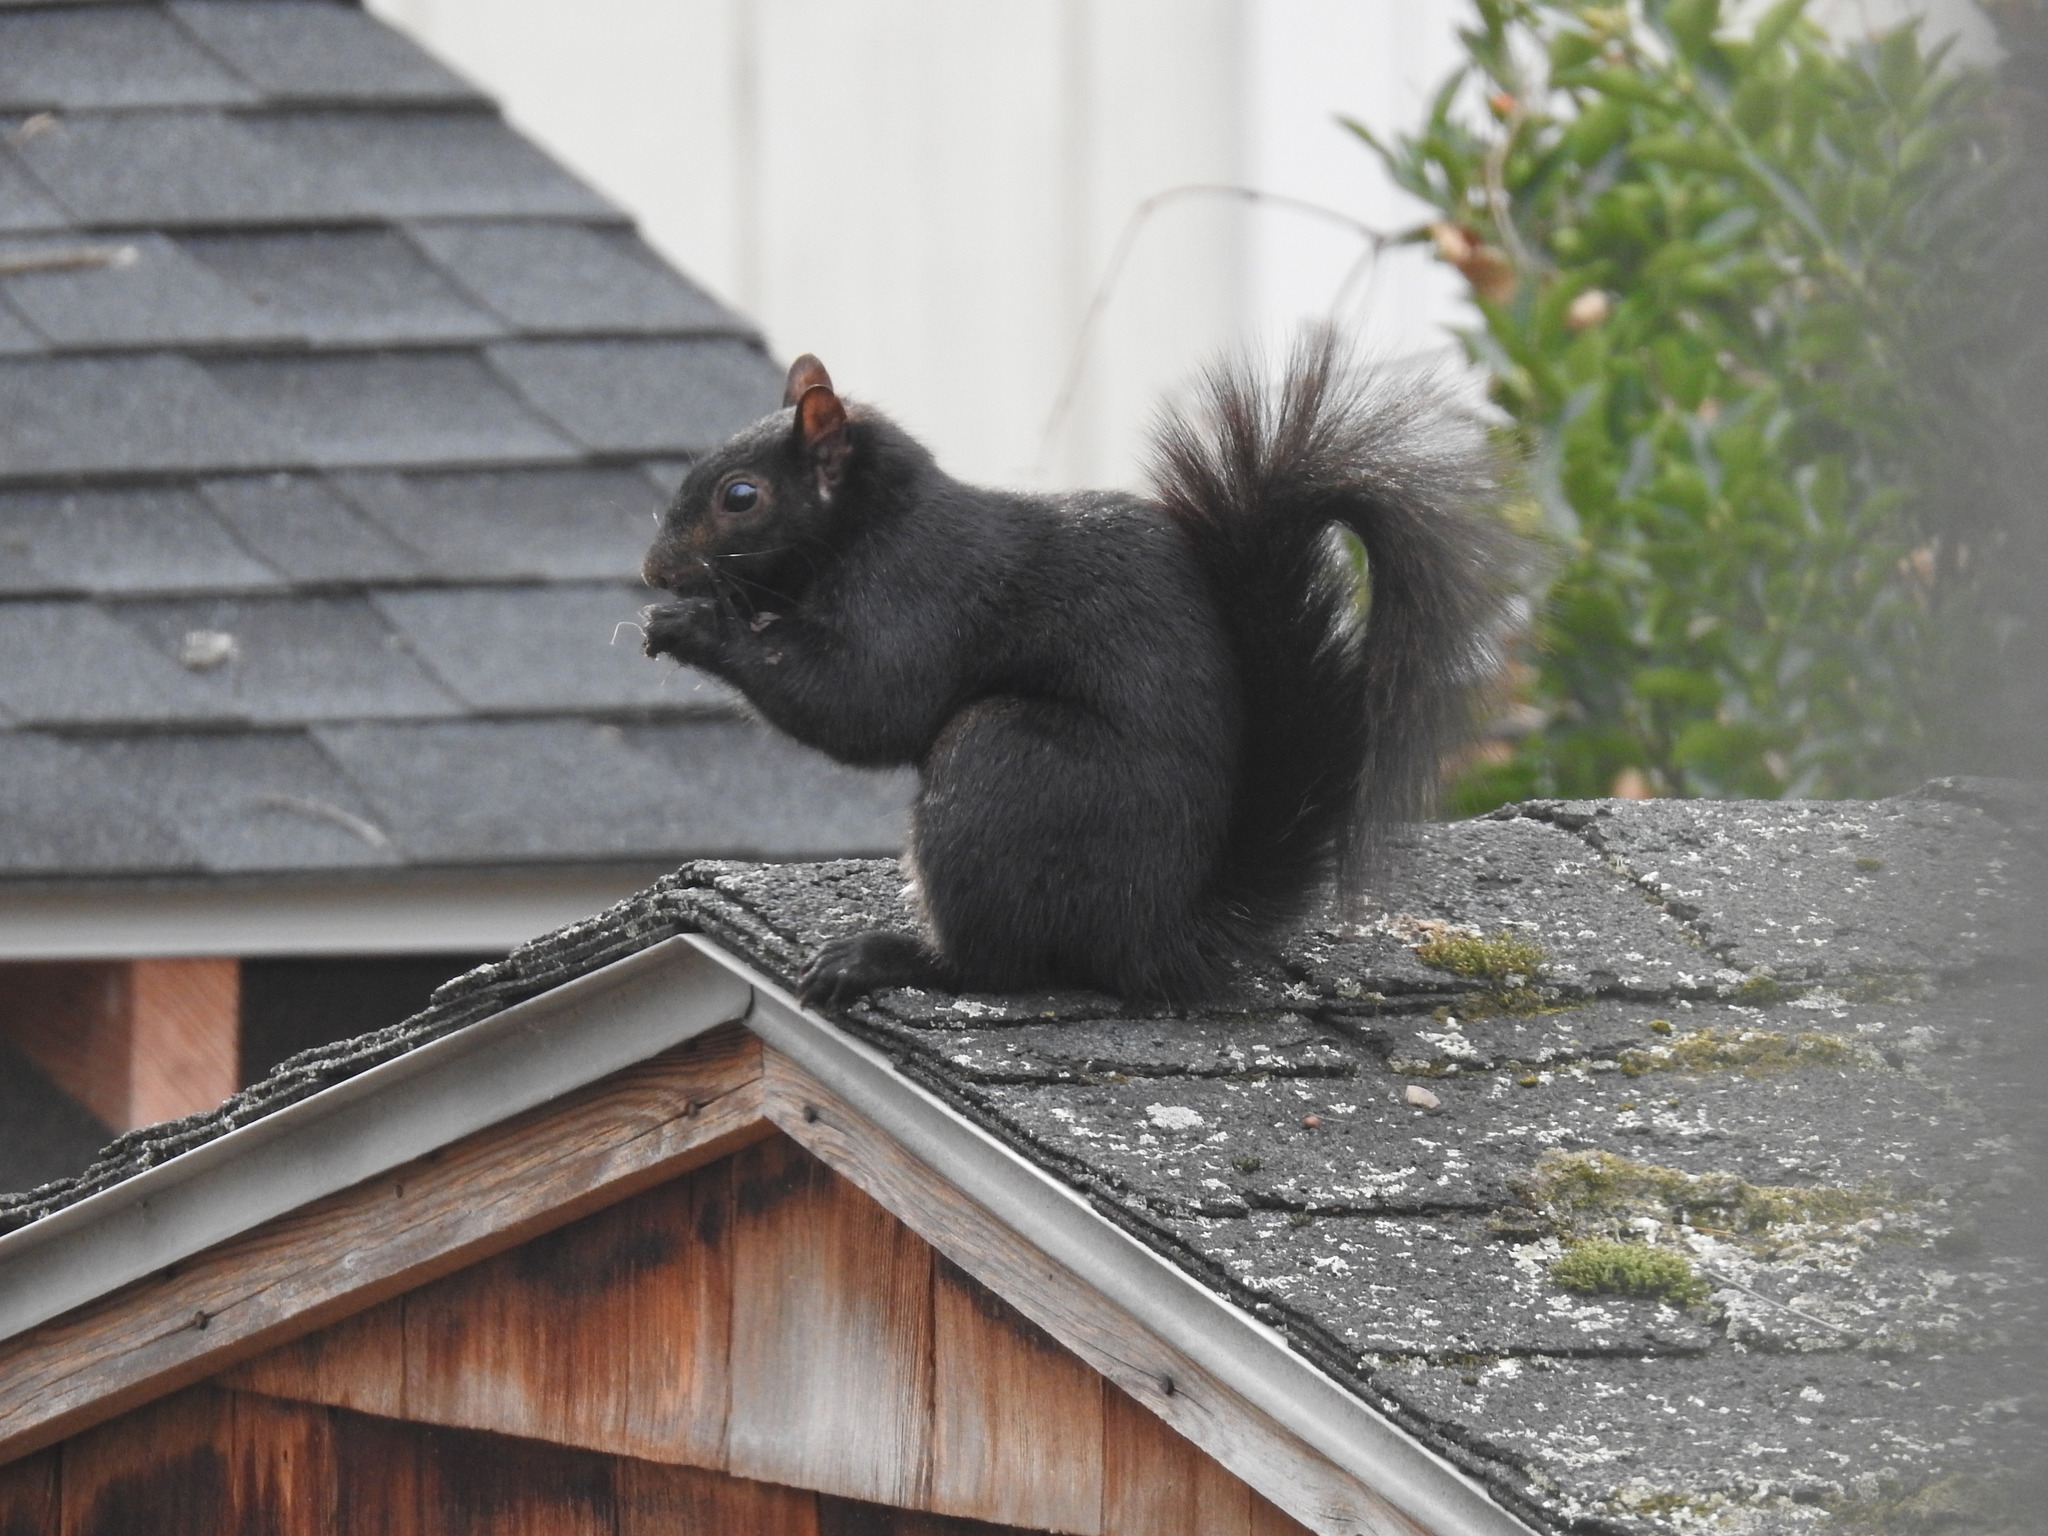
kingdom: Animalia
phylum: Chordata
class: Mammalia
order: Rodentia
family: Sciuridae
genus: Sciurus
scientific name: Sciurus carolinensis
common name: Eastern gray squirrel
